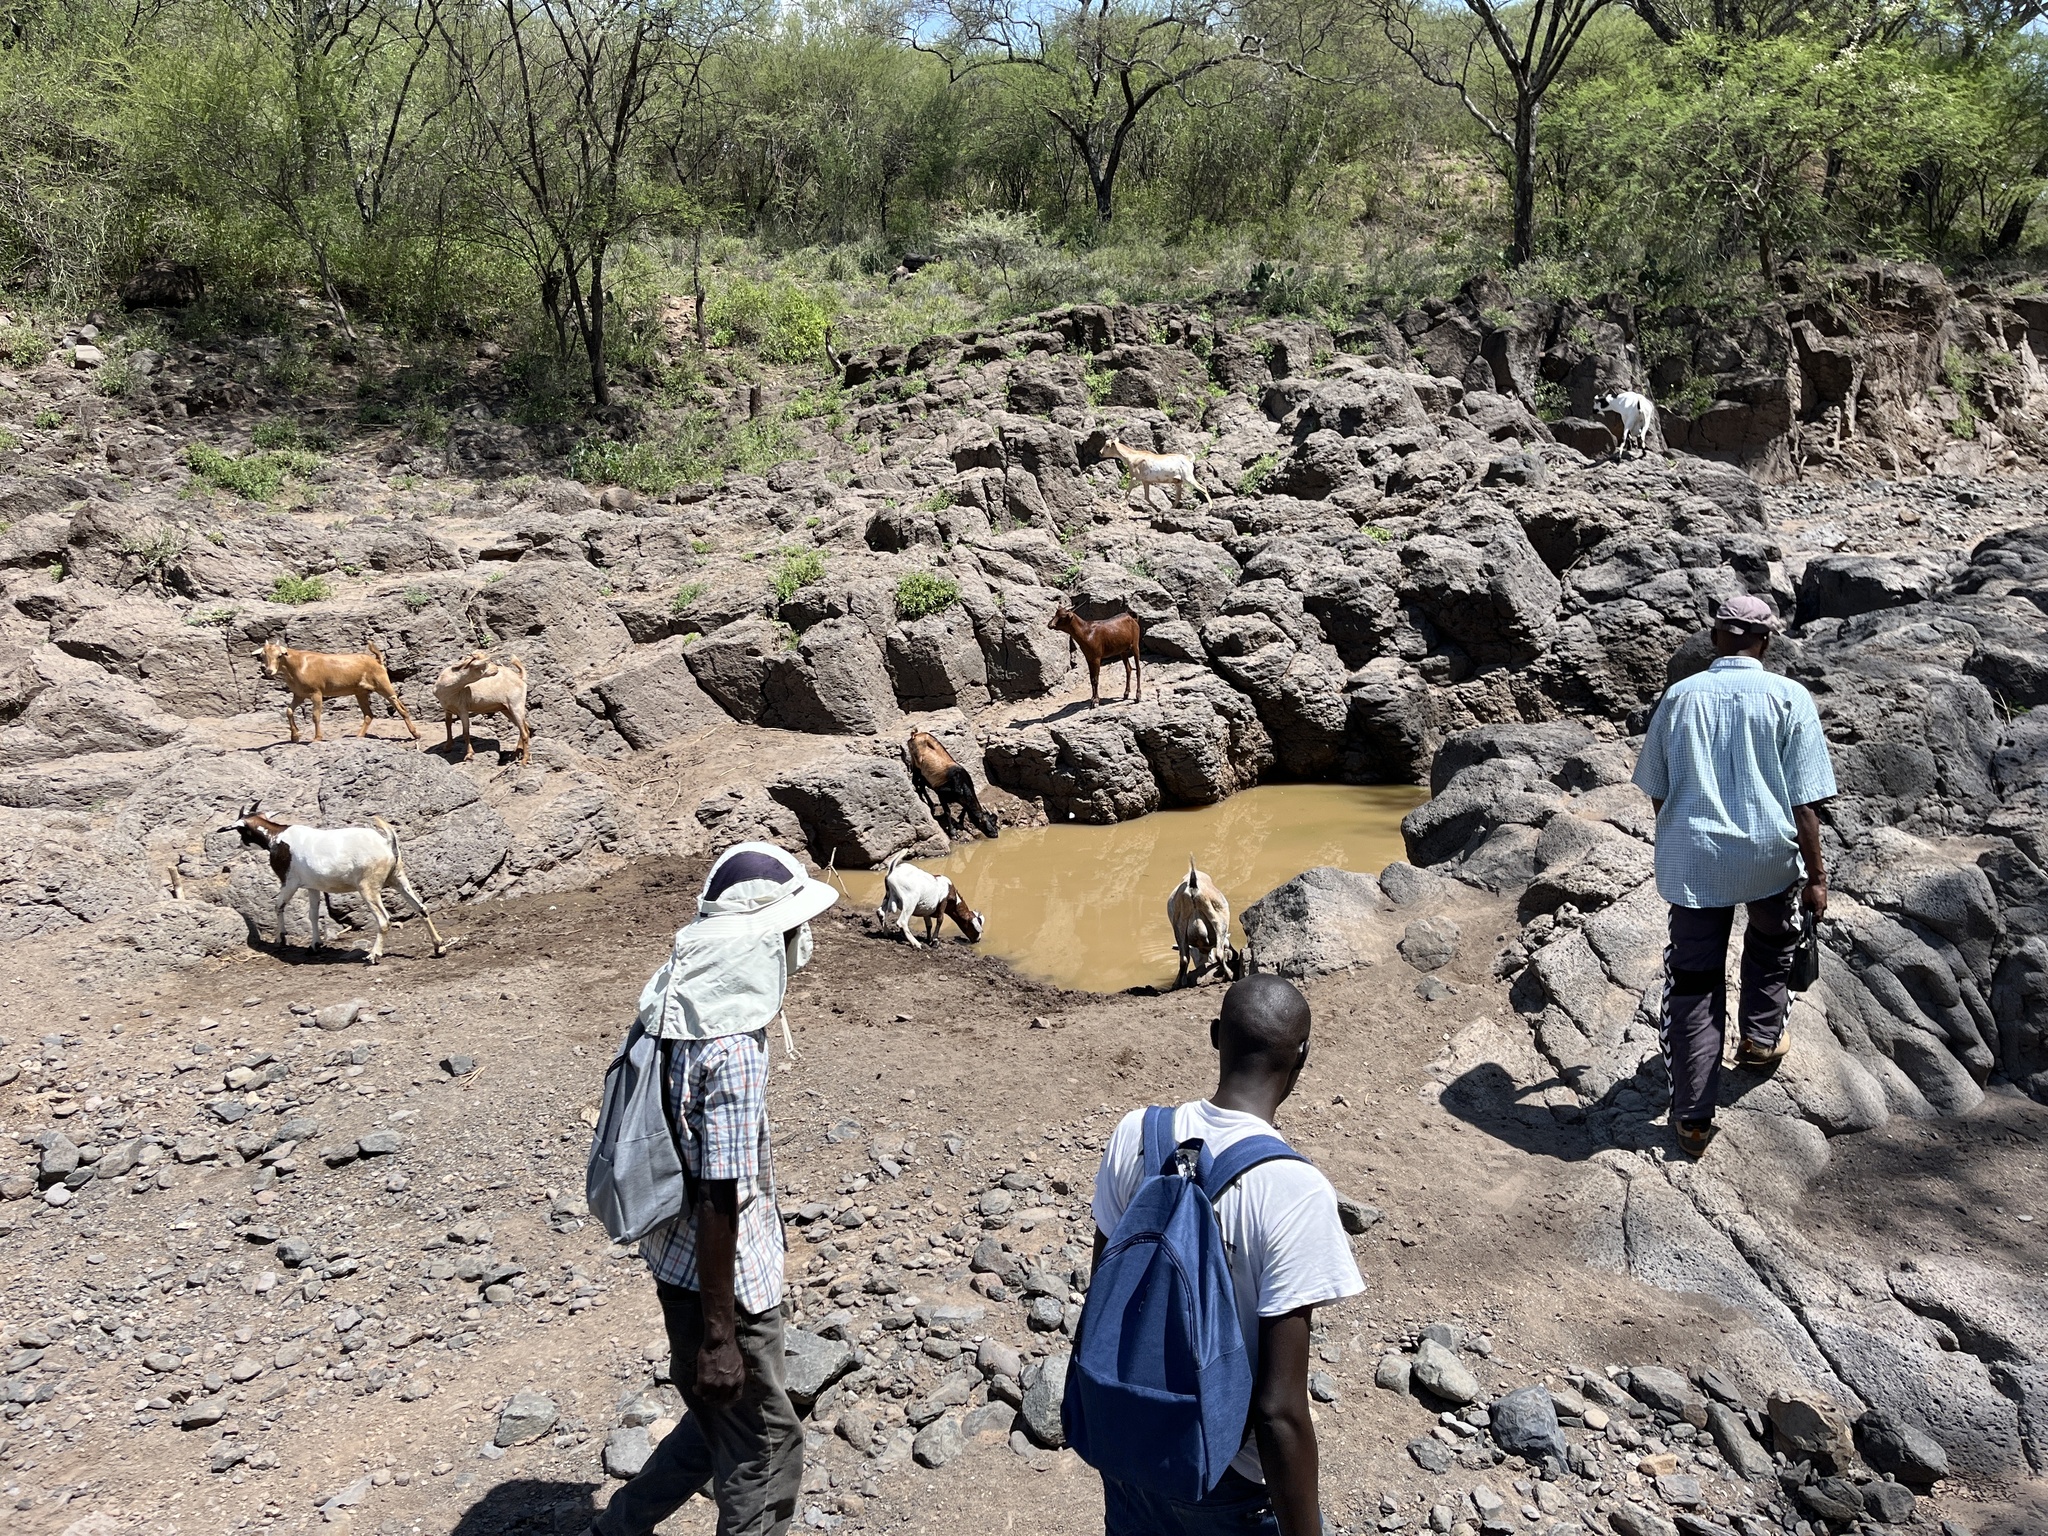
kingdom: Animalia
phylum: Chordata
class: Mammalia
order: Artiodactyla
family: Bovidae
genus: Capra
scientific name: Capra hircus
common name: Domestic goat
